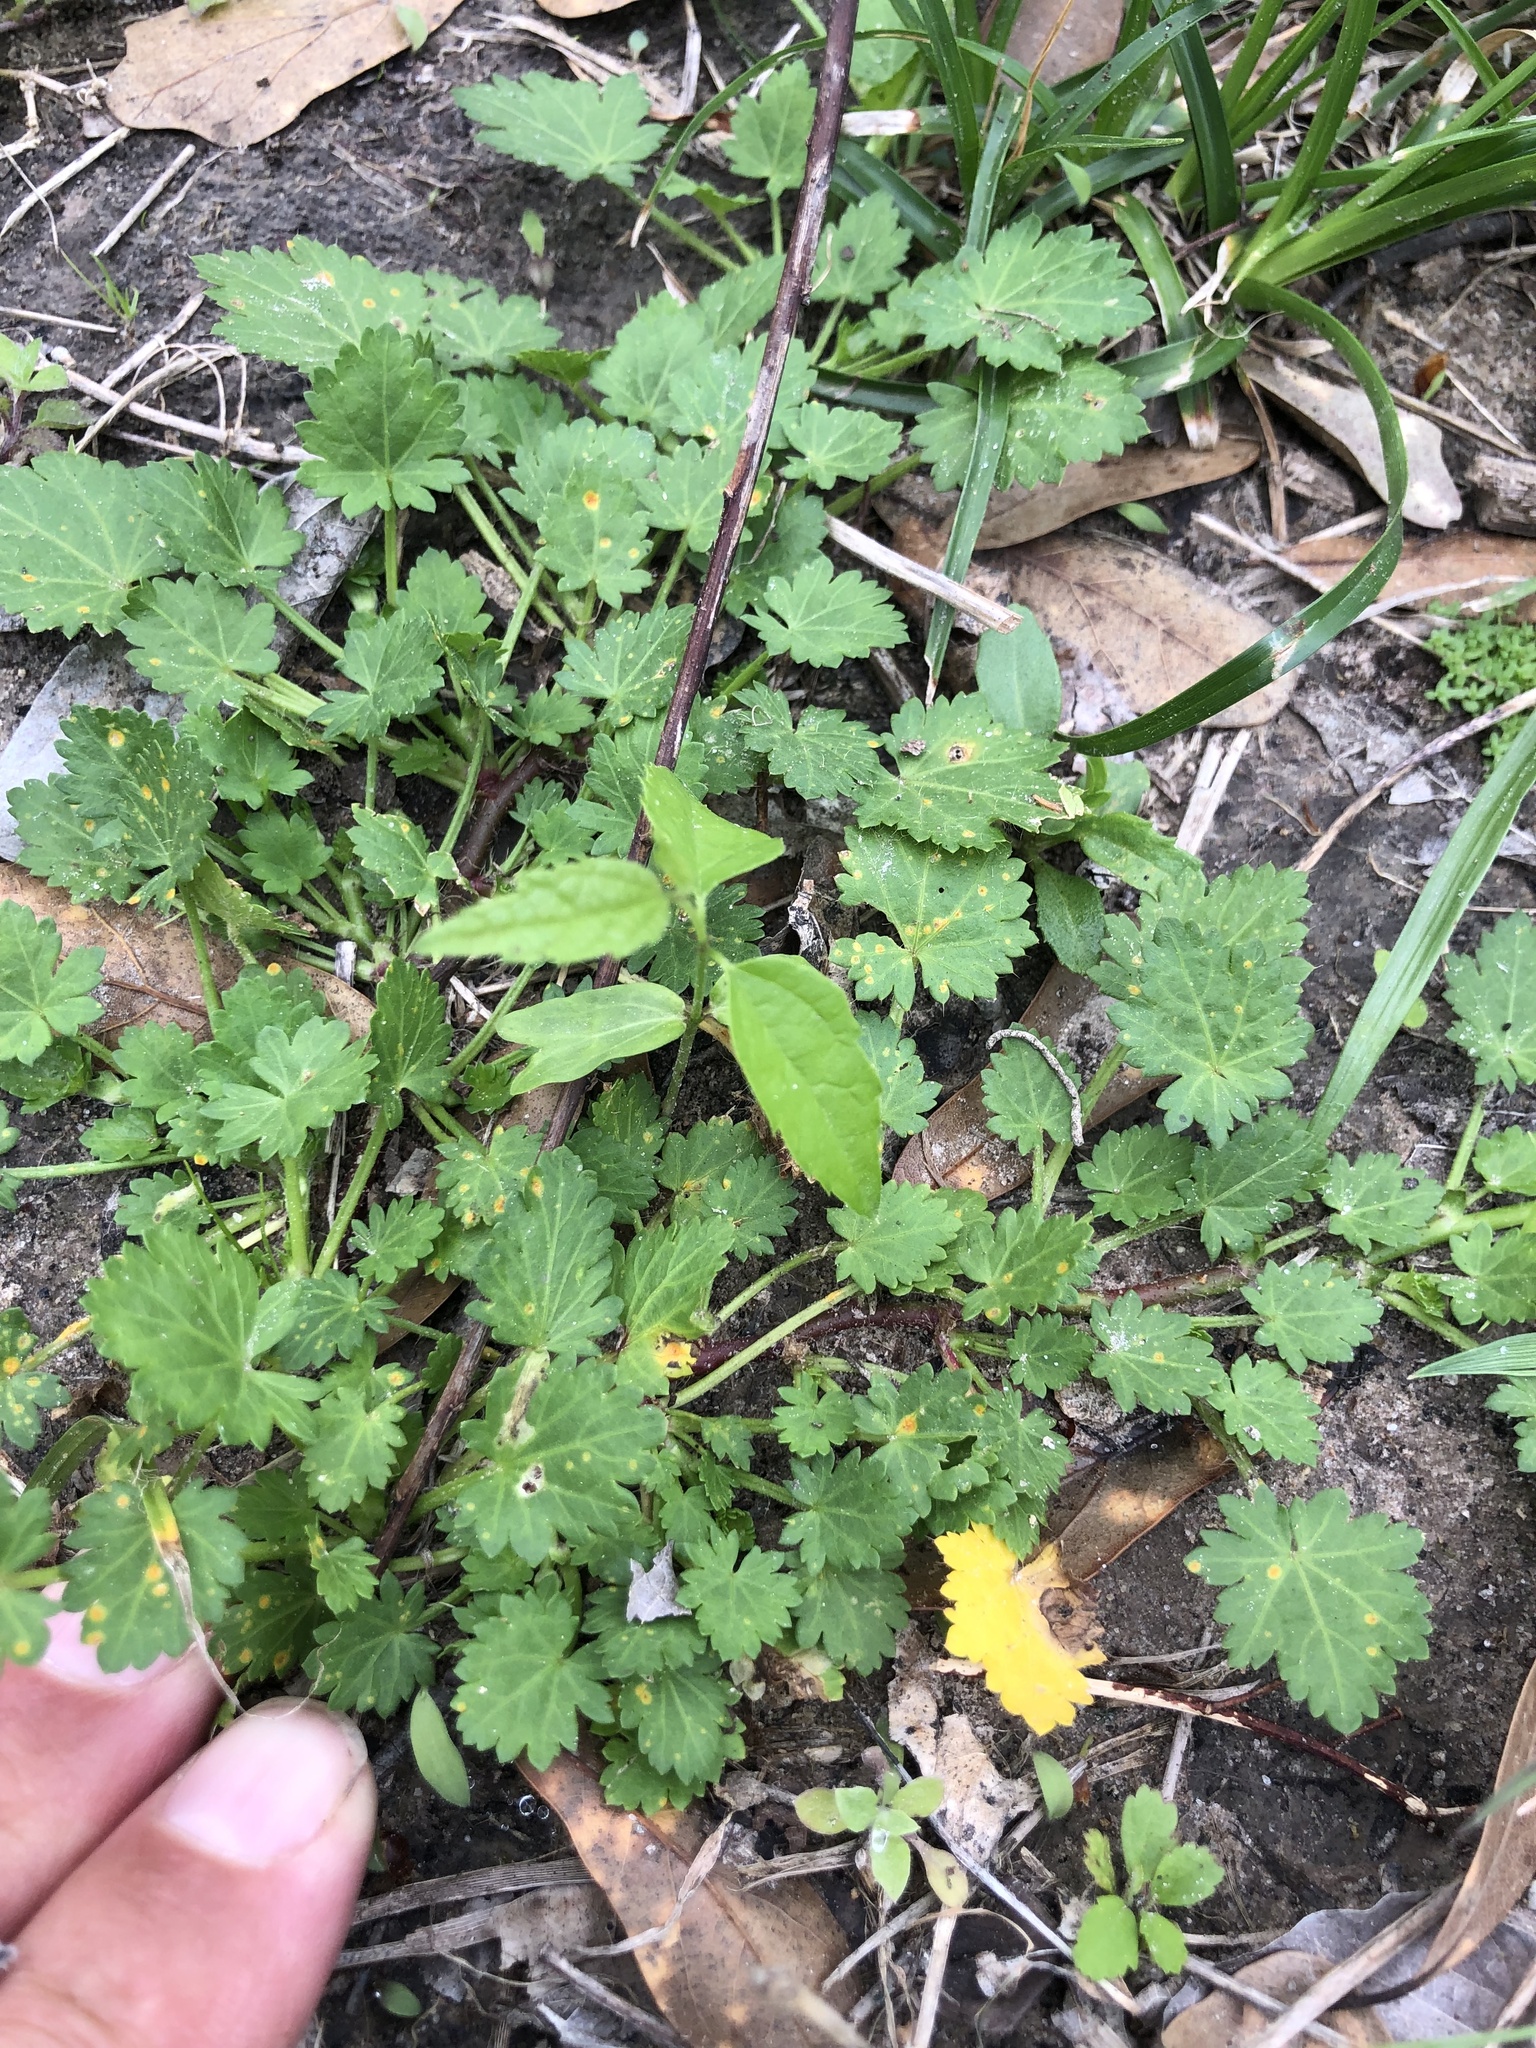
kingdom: Plantae
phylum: Tracheophyta
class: Magnoliopsida
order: Malvales
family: Malvaceae
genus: Modiola
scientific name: Modiola caroliniana
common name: Carolina bristlemallow
